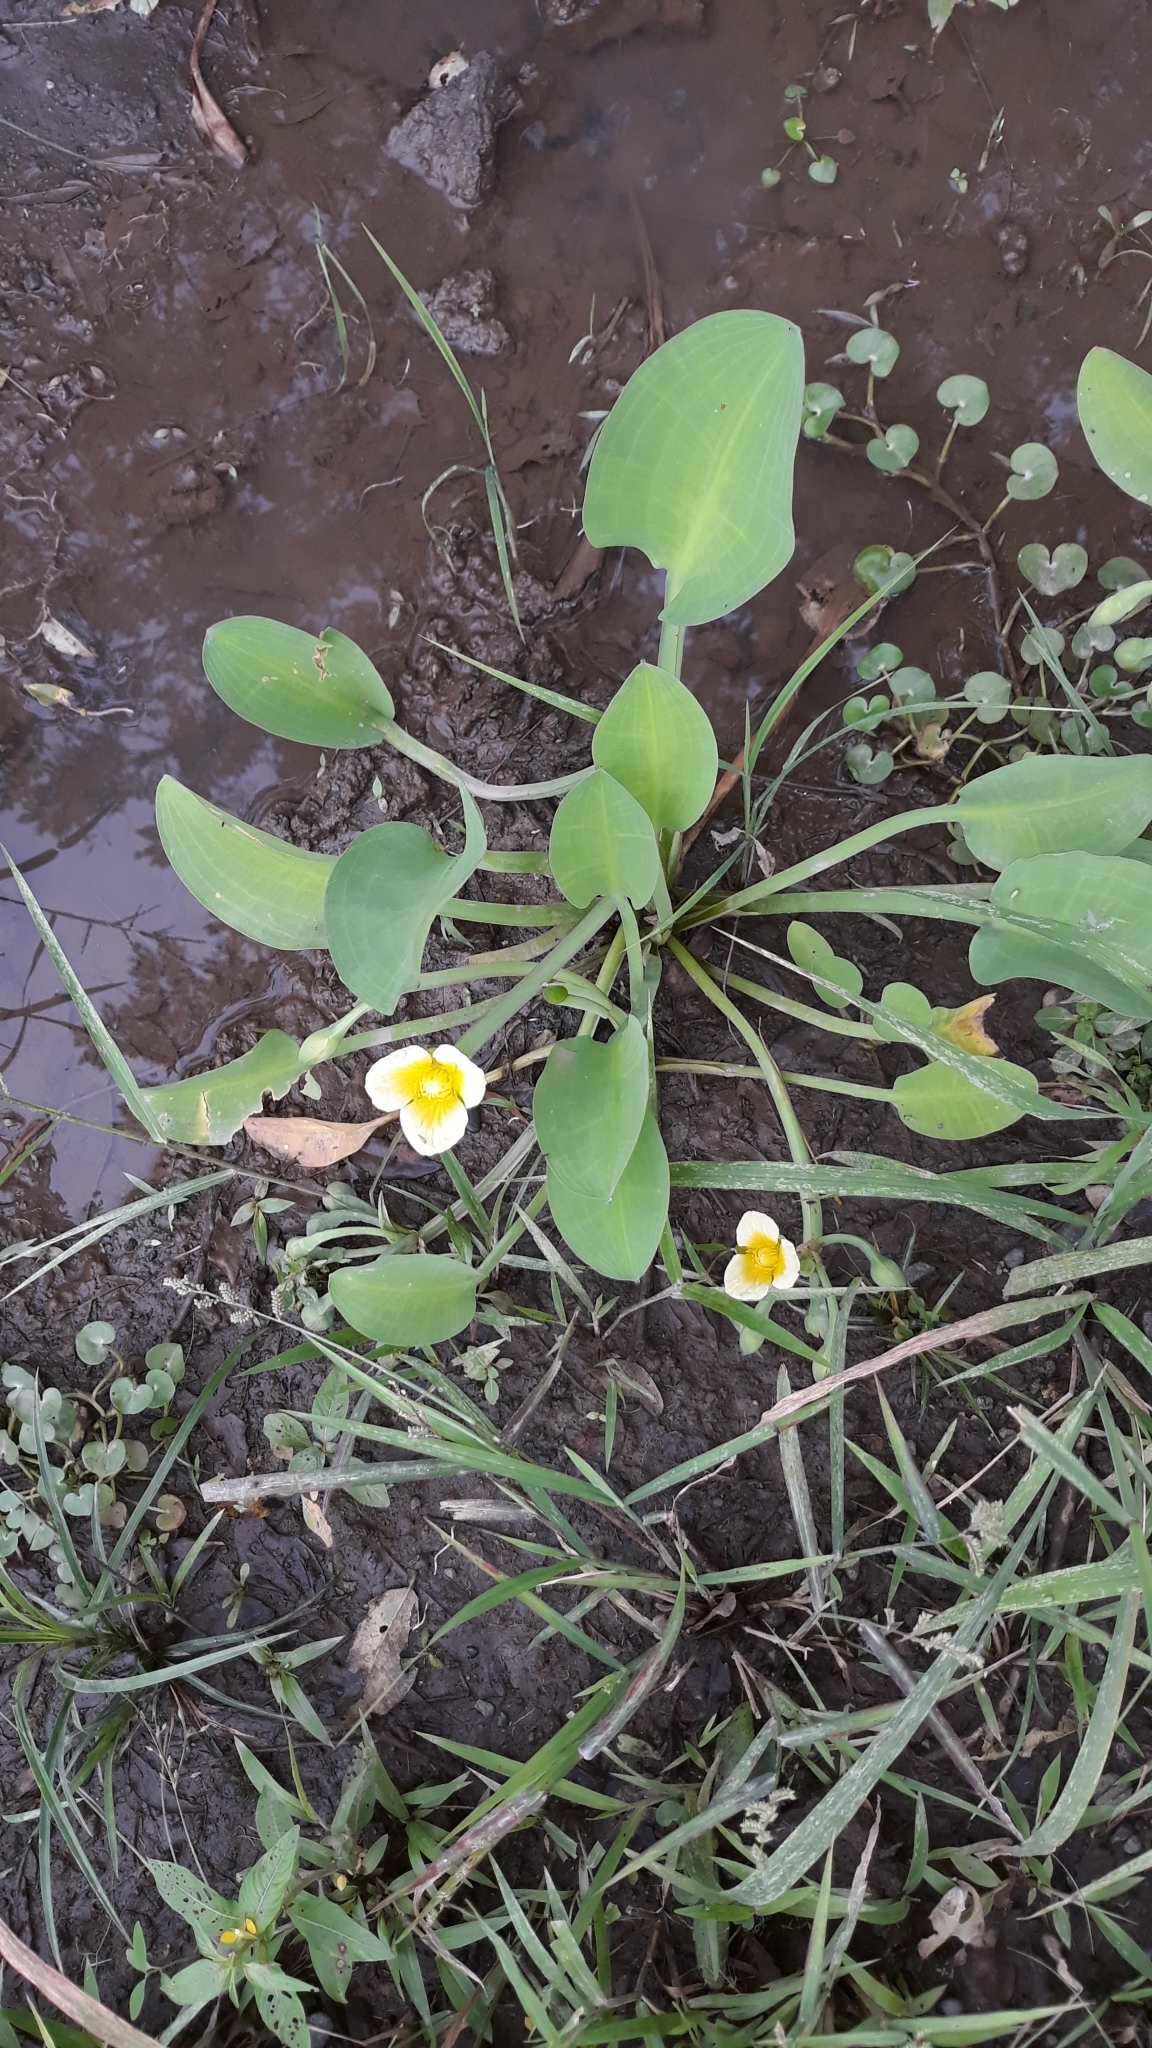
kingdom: Plantae
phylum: Tracheophyta
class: Liliopsida
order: Alismatales
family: Alismataceae
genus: Limnocharis
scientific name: Limnocharis flava
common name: Sawah-flower-rush
